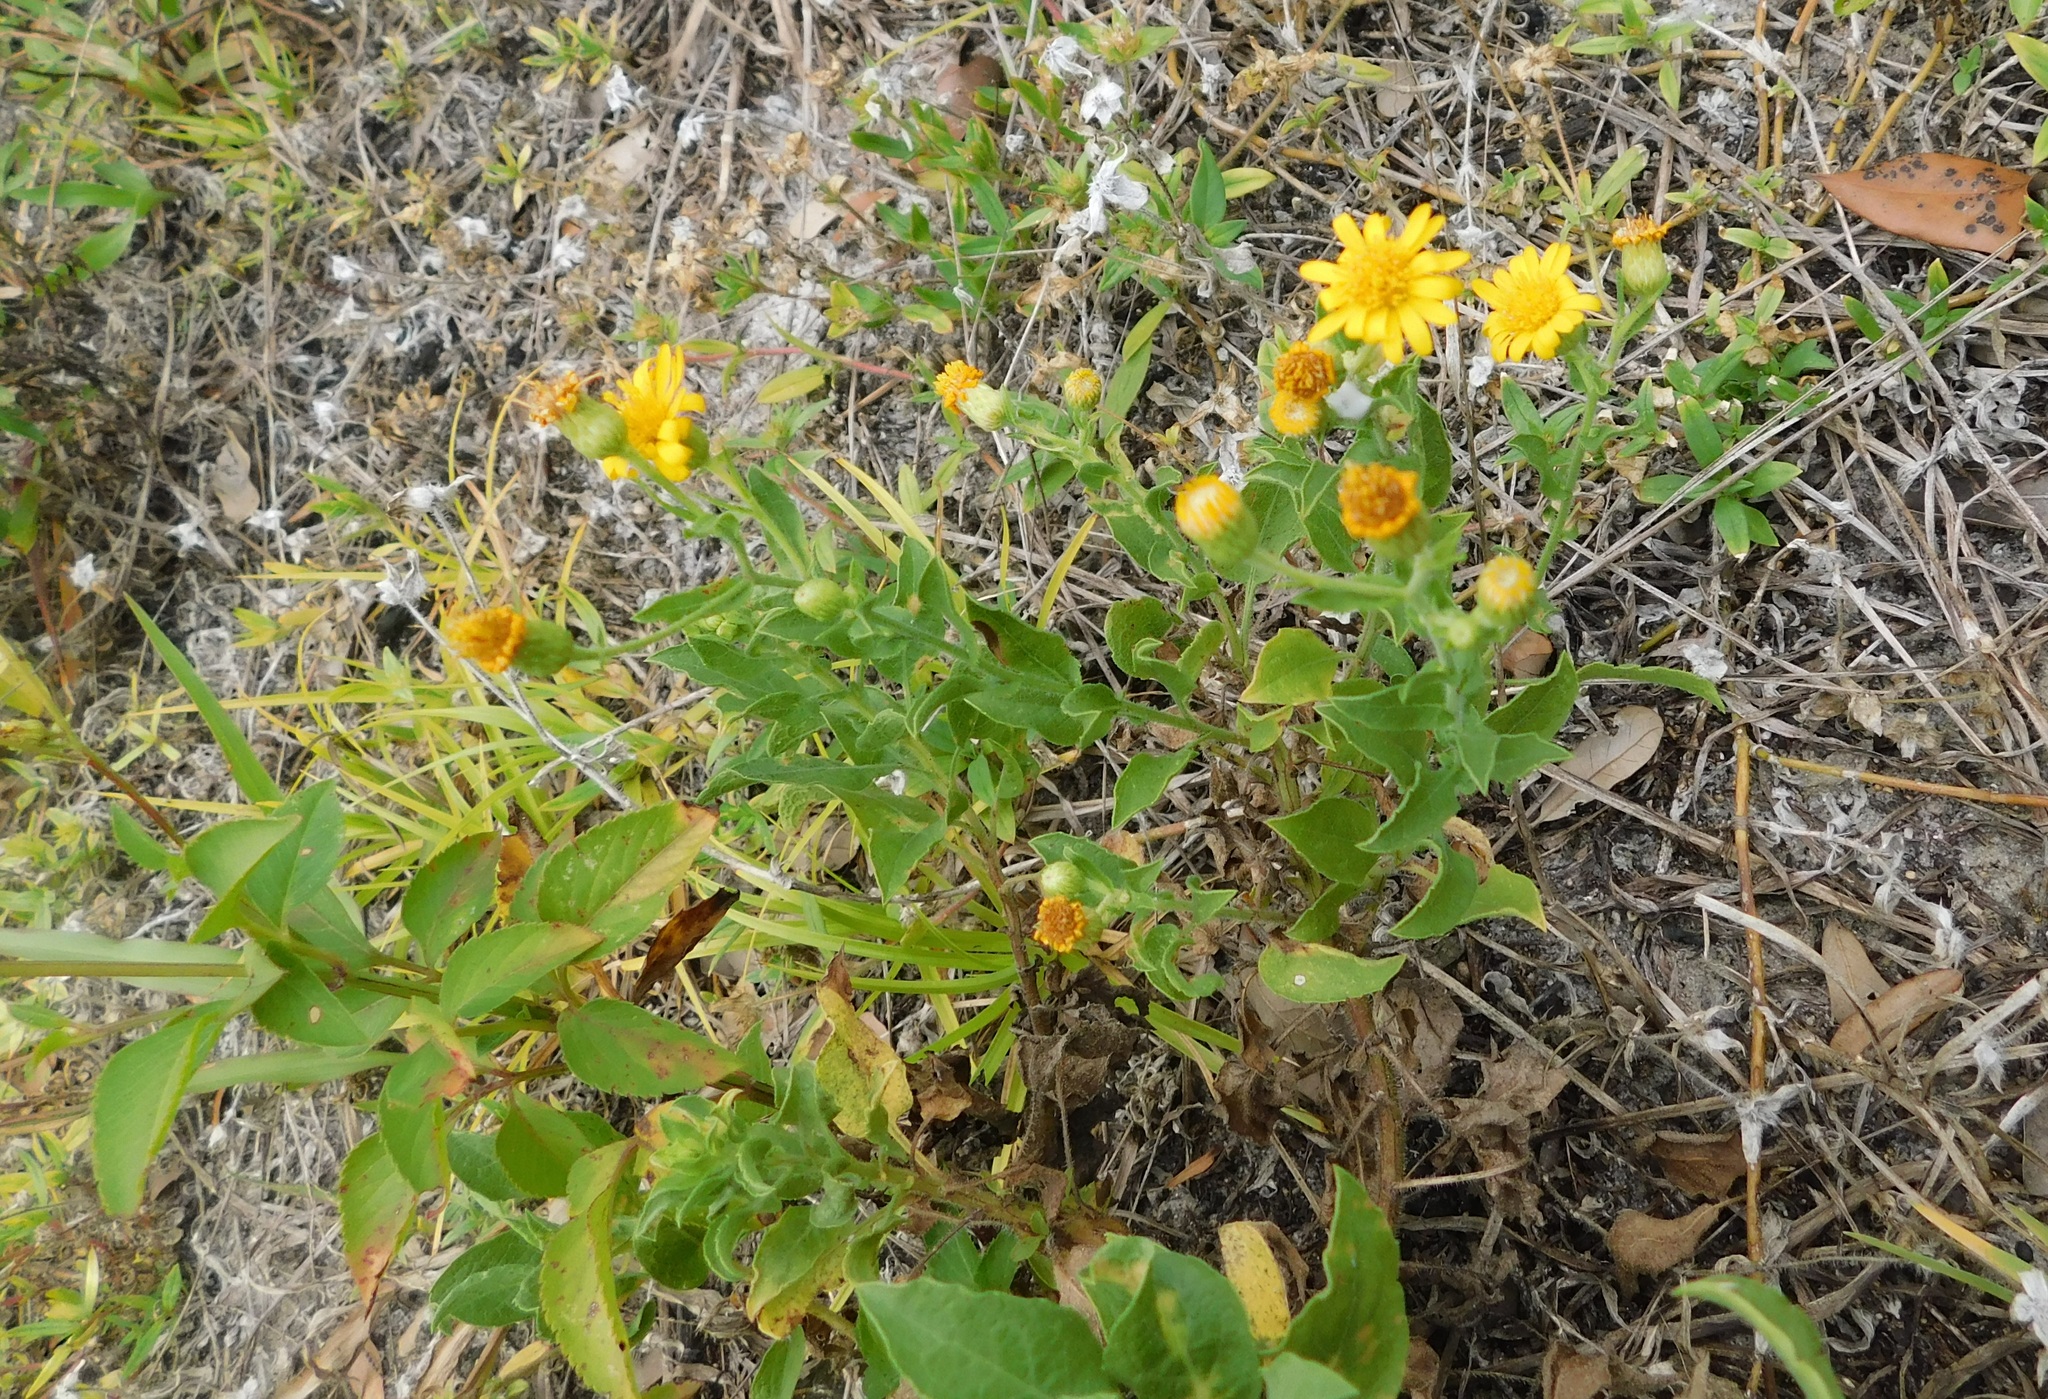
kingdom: Plantae
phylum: Tracheophyta
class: Magnoliopsida
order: Asterales
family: Asteraceae
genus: Heterotheca
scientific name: Heterotheca subaxillaris
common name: Camphorweed
